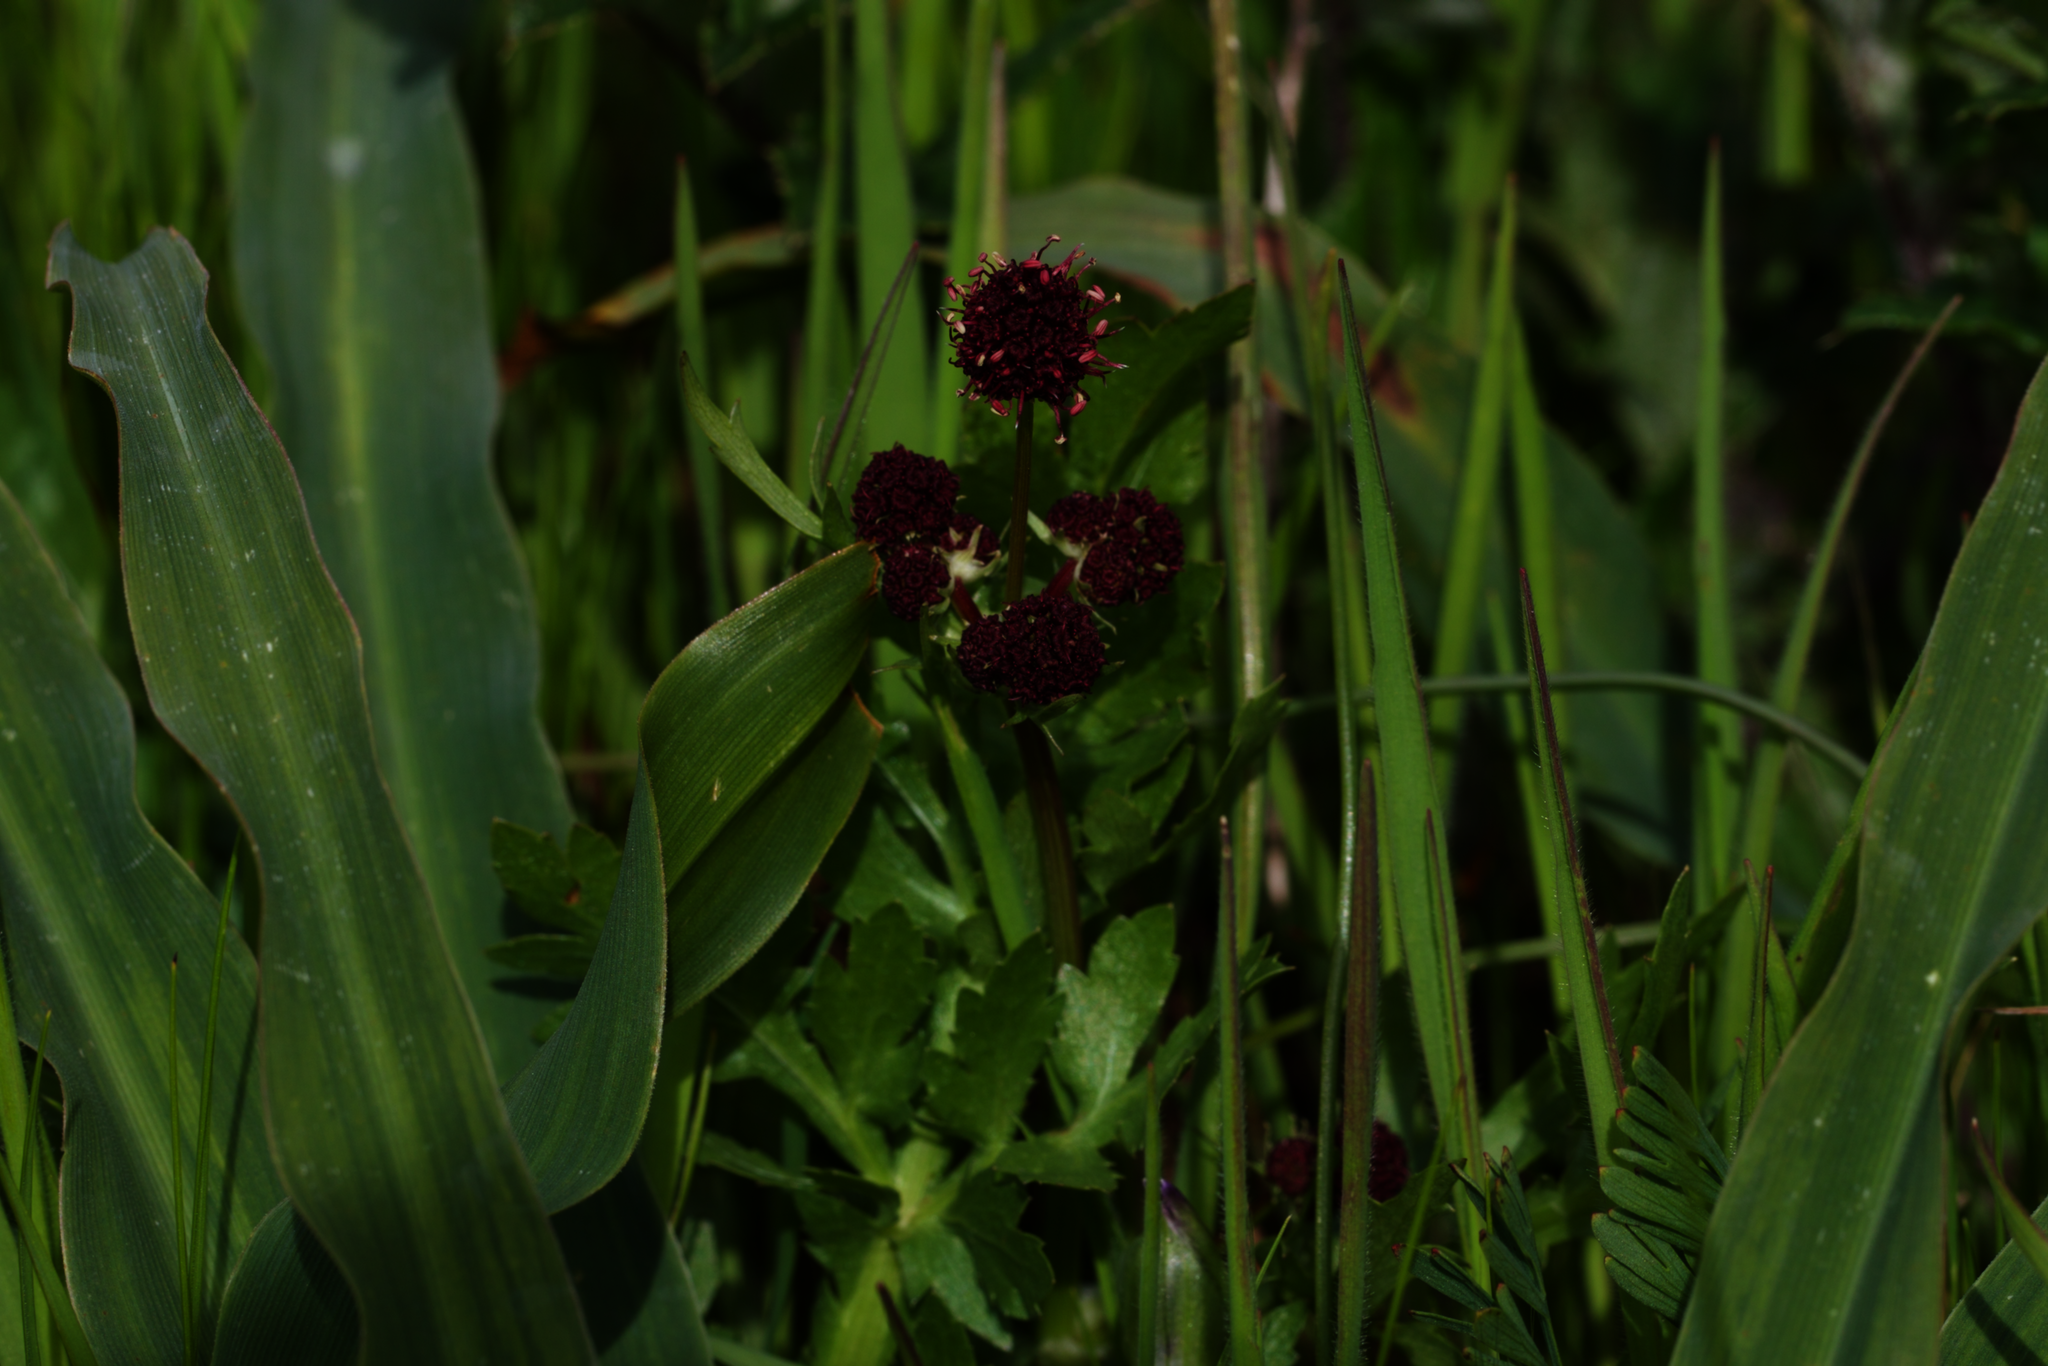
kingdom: Plantae
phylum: Tracheophyta
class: Magnoliopsida
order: Apiales
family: Apiaceae
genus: Sanicula
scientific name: Sanicula bipinnatifida
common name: Shoe-buttons
